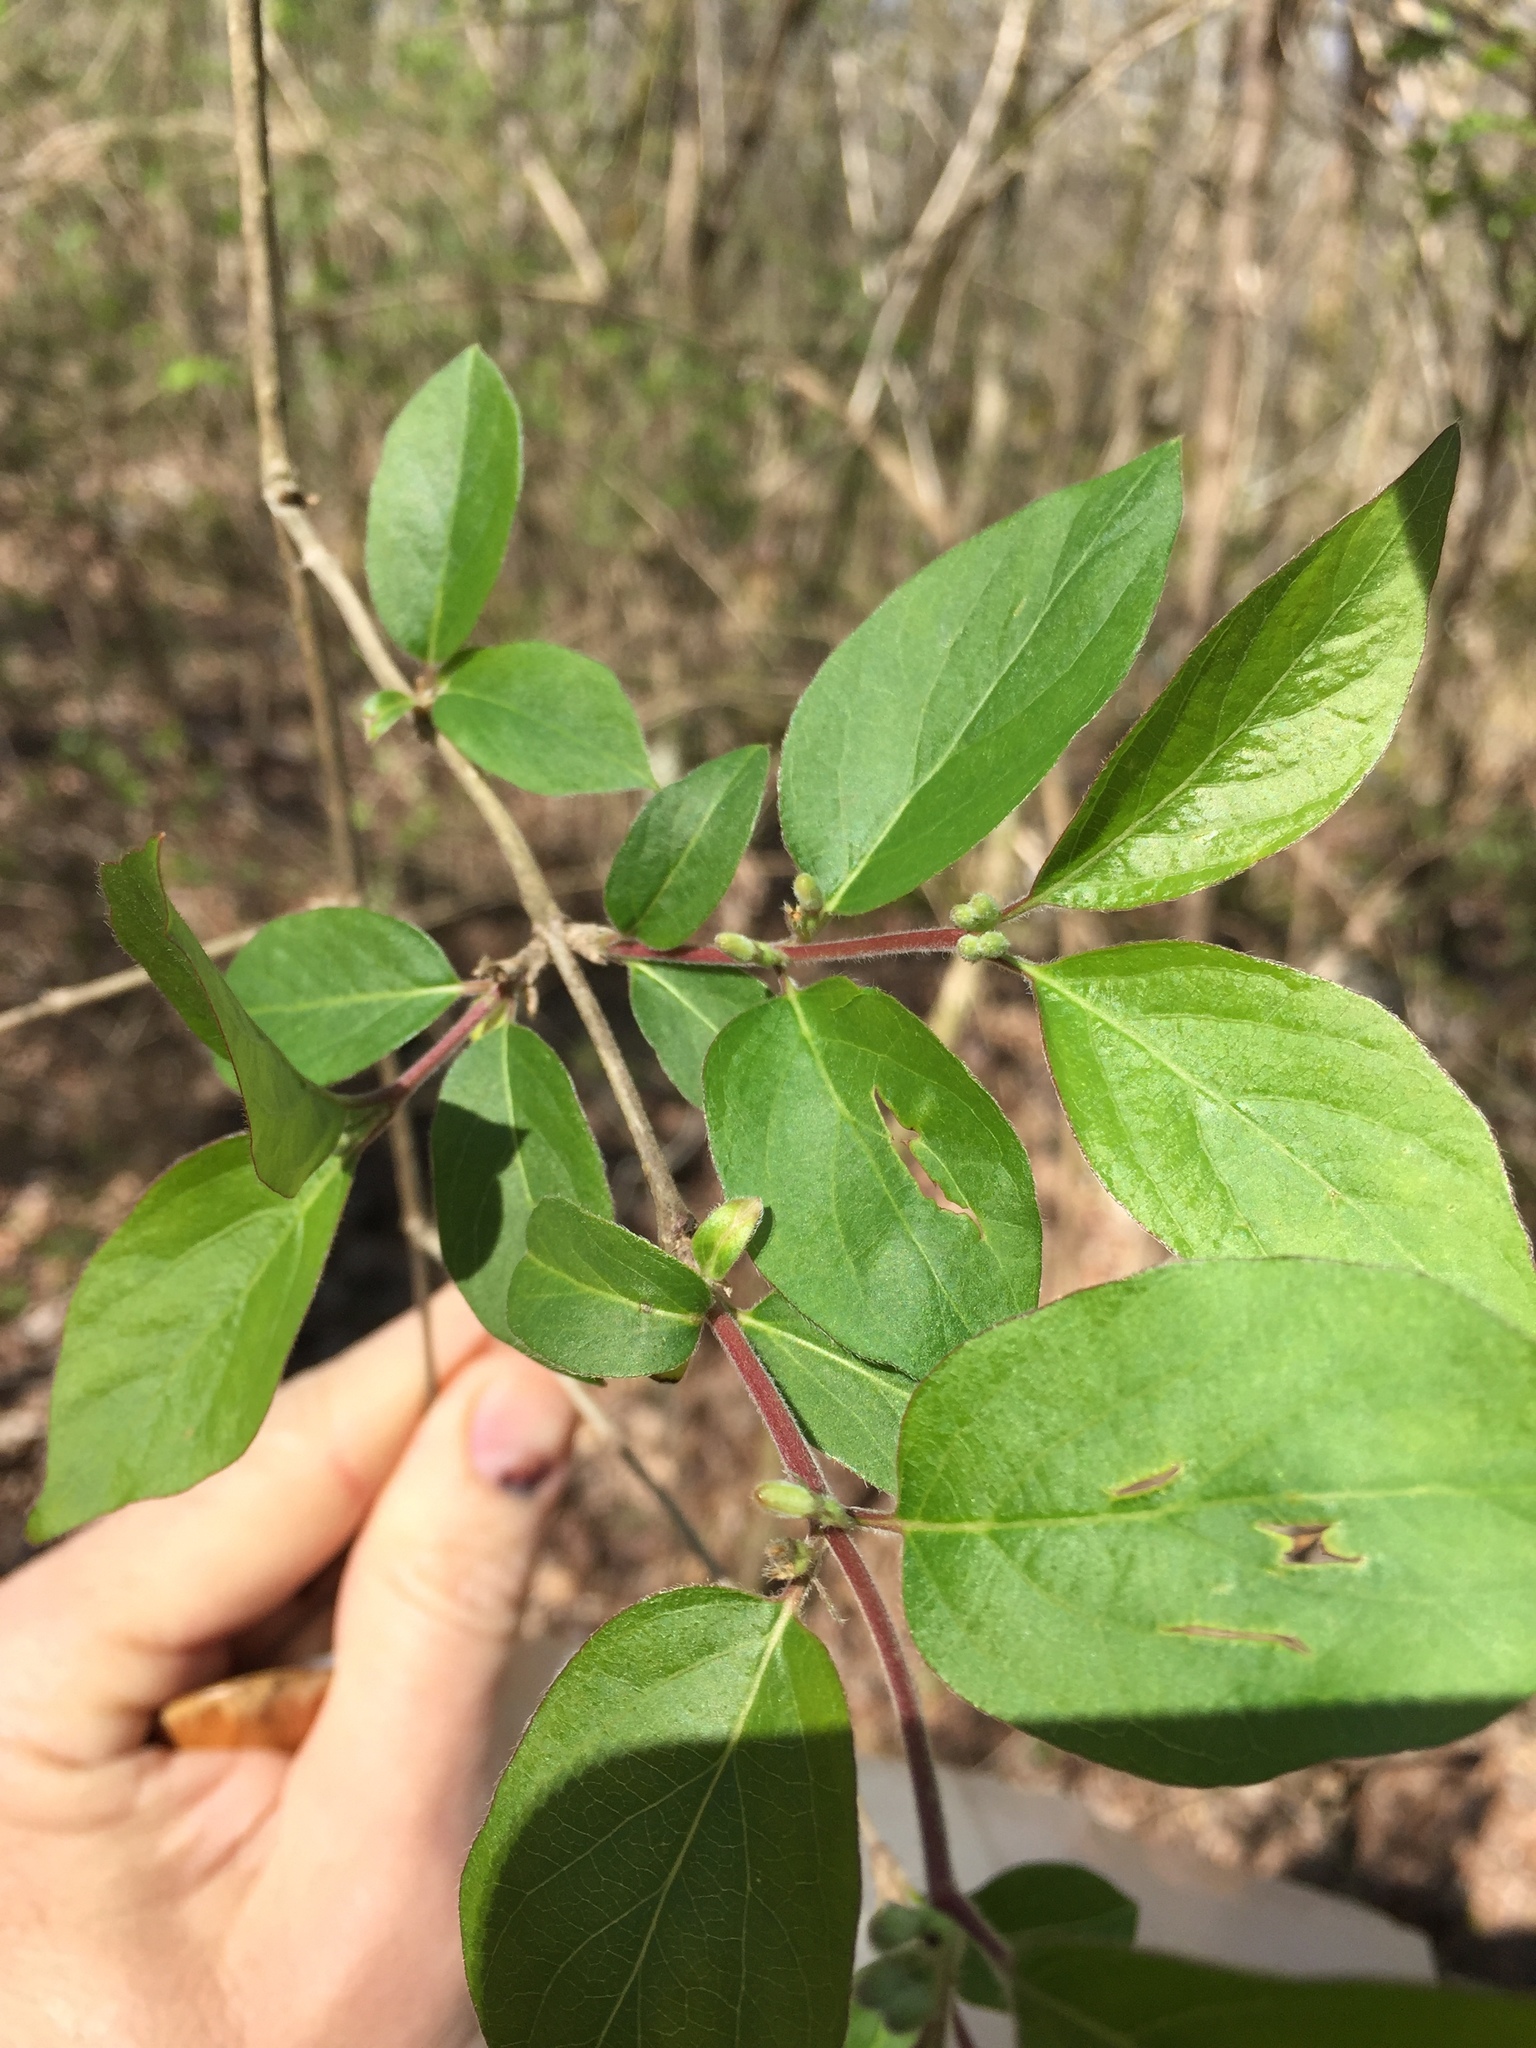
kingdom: Plantae
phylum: Tracheophyta
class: Magnoliopsida
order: Dipsacales
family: Caprifoliaceae
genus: Lonicera
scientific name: Lonicera maackii
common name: Amur honeysuckle
